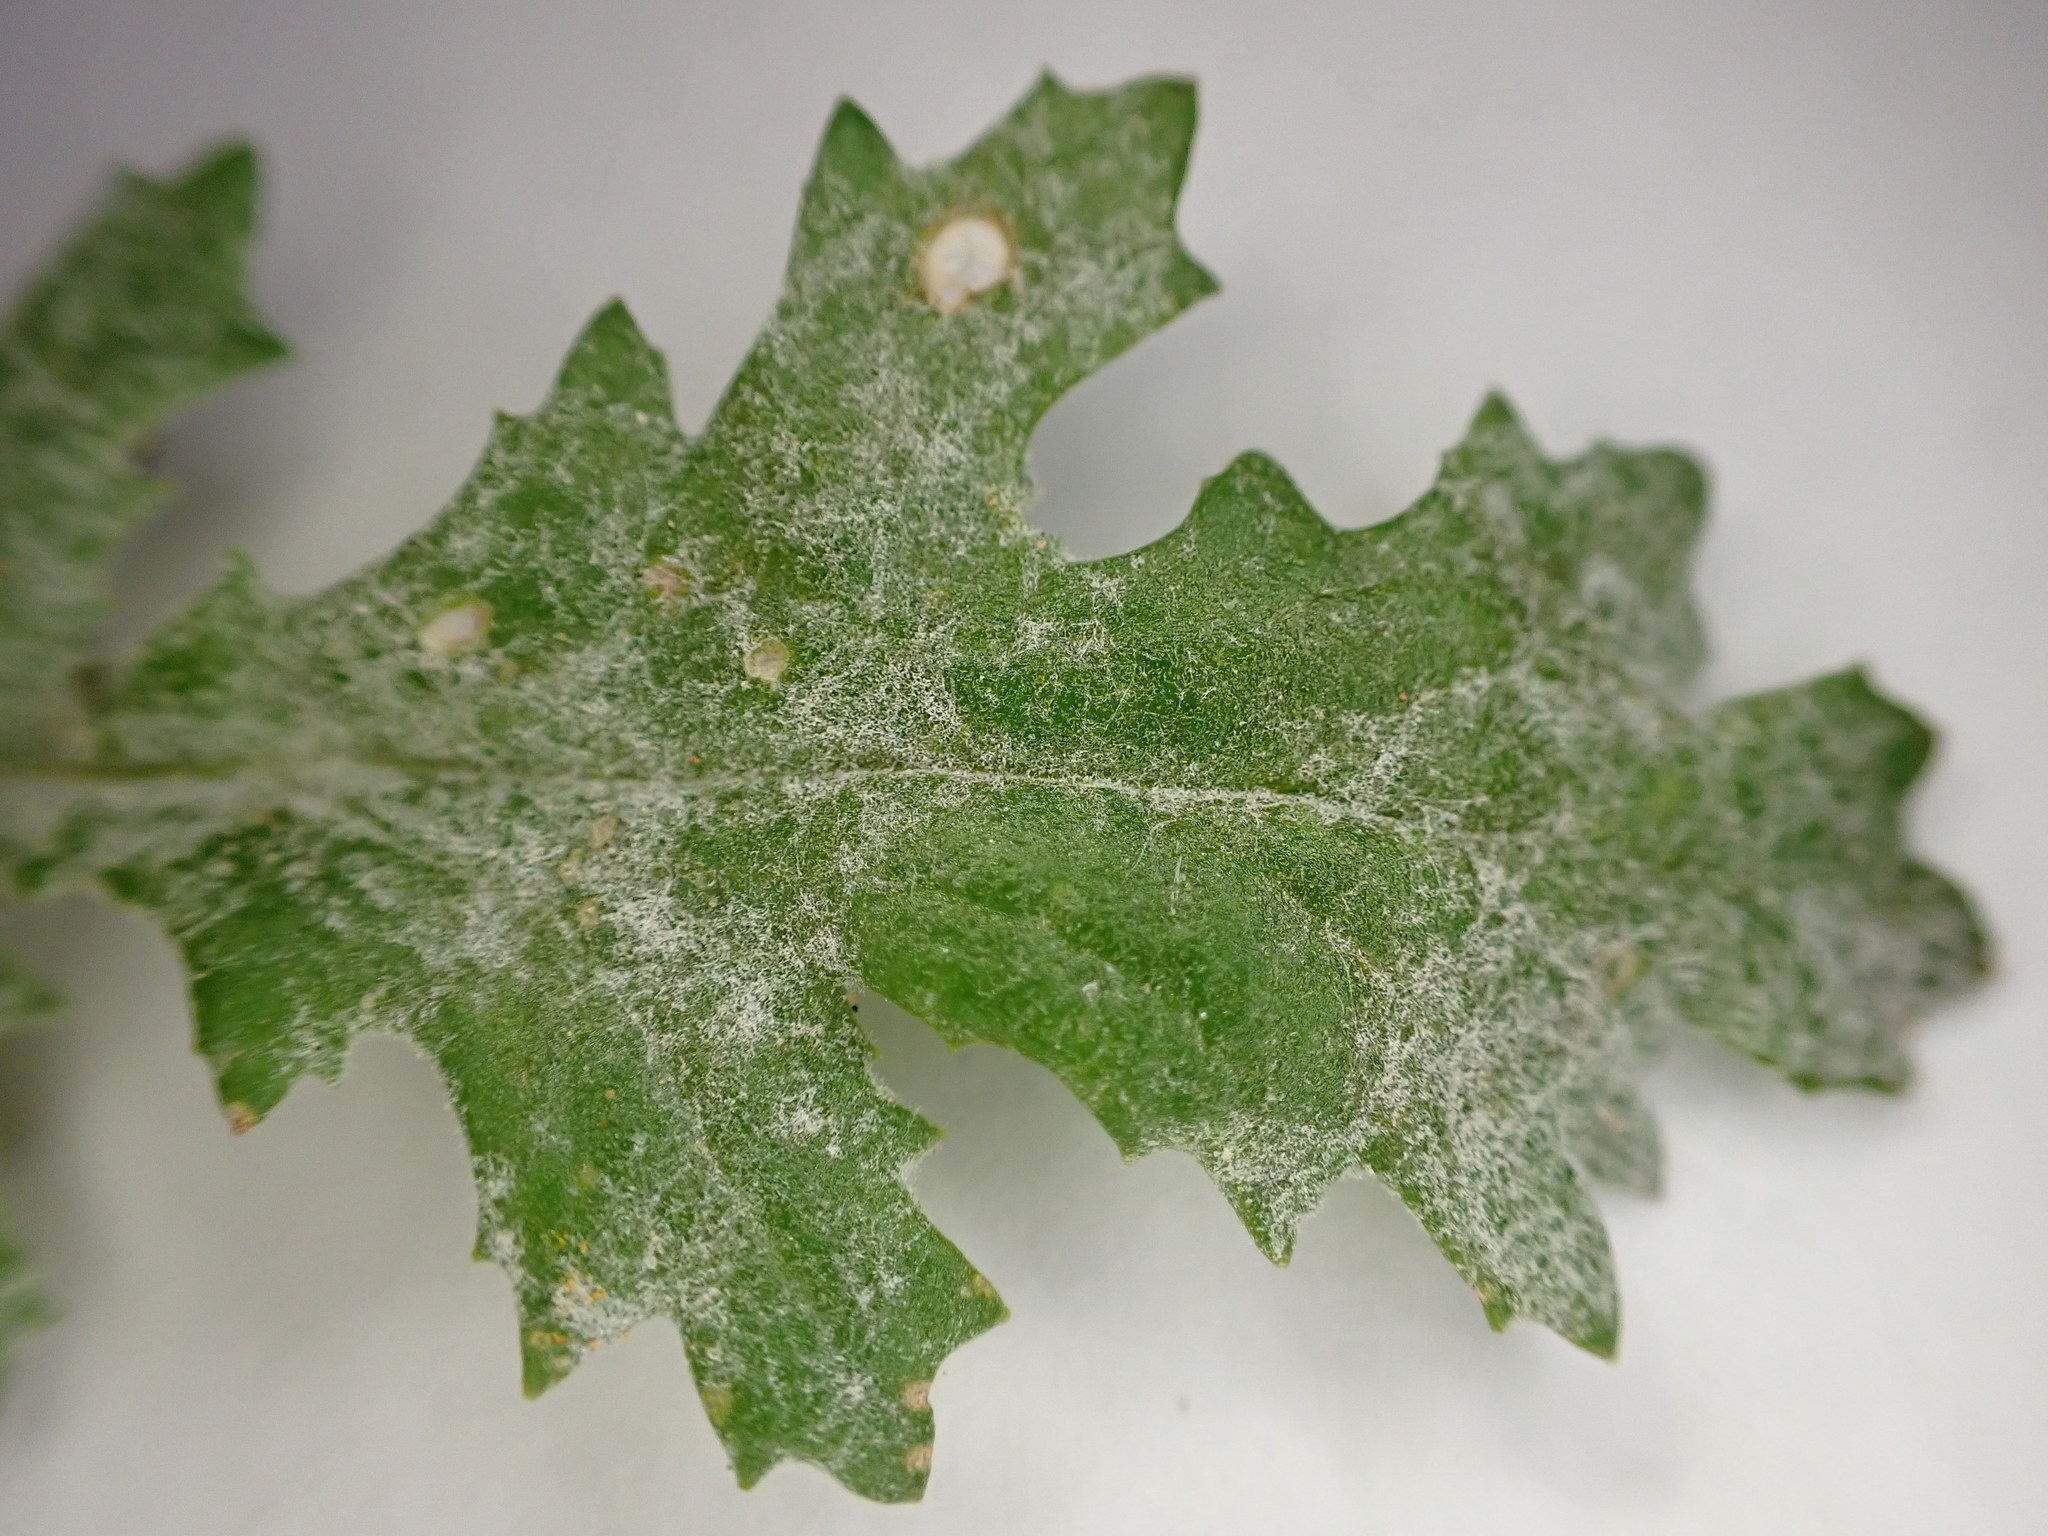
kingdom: Plantae
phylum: Tracheophyta
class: Magnoliopsida
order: Asterales
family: Asteraceae
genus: Senecio
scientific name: Senecio vulgaris
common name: Old-man-in-the-spring
